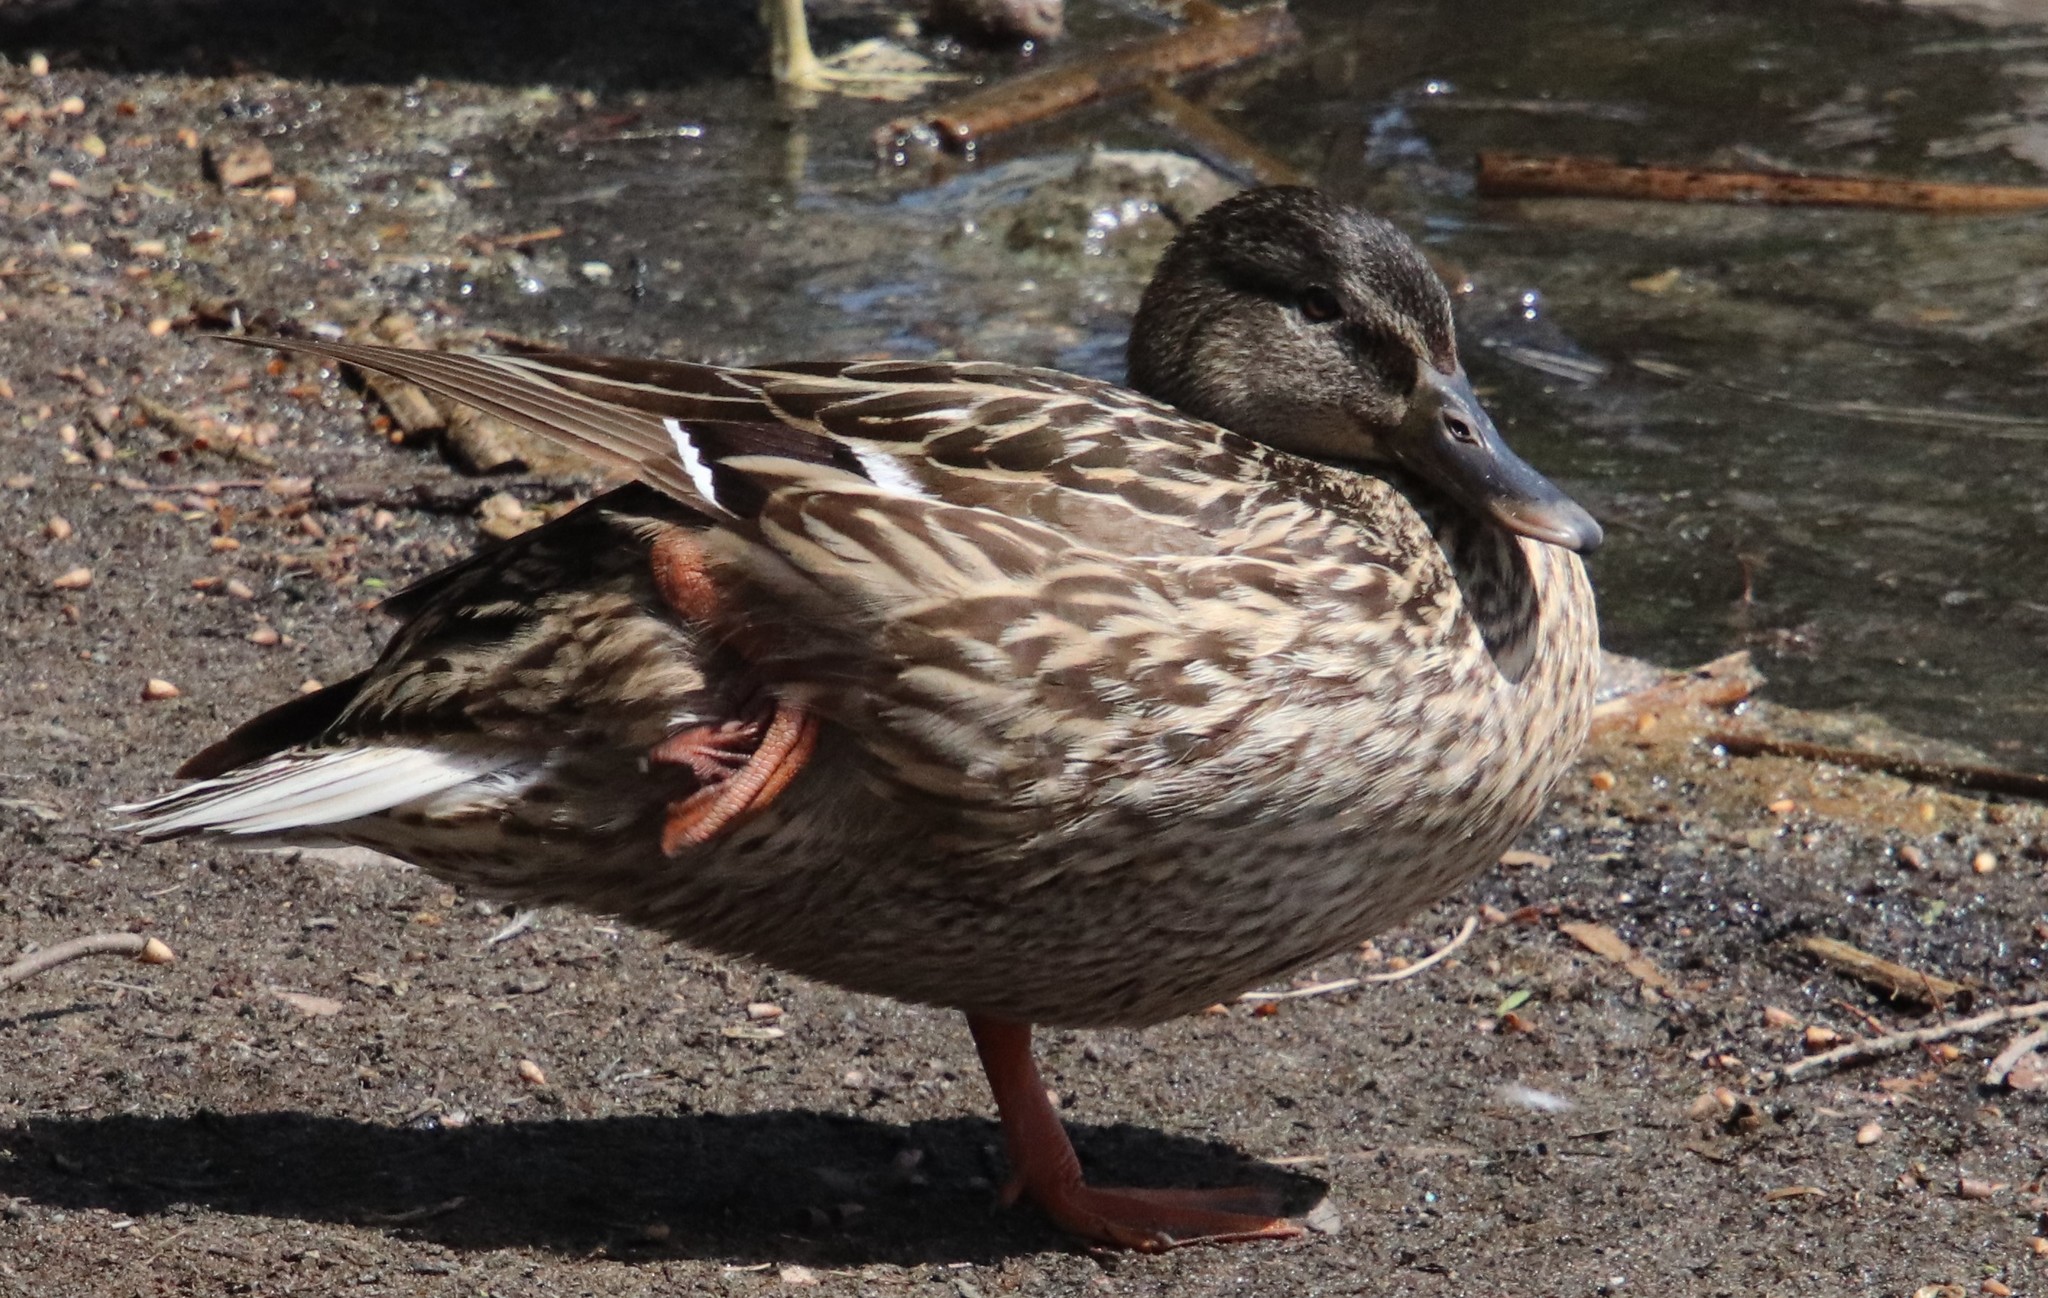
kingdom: Animalia
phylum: Chordata
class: Aves
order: Anseriformes
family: Anatidae
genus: Anas
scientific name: Anas platyrhynchos
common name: Mallard
